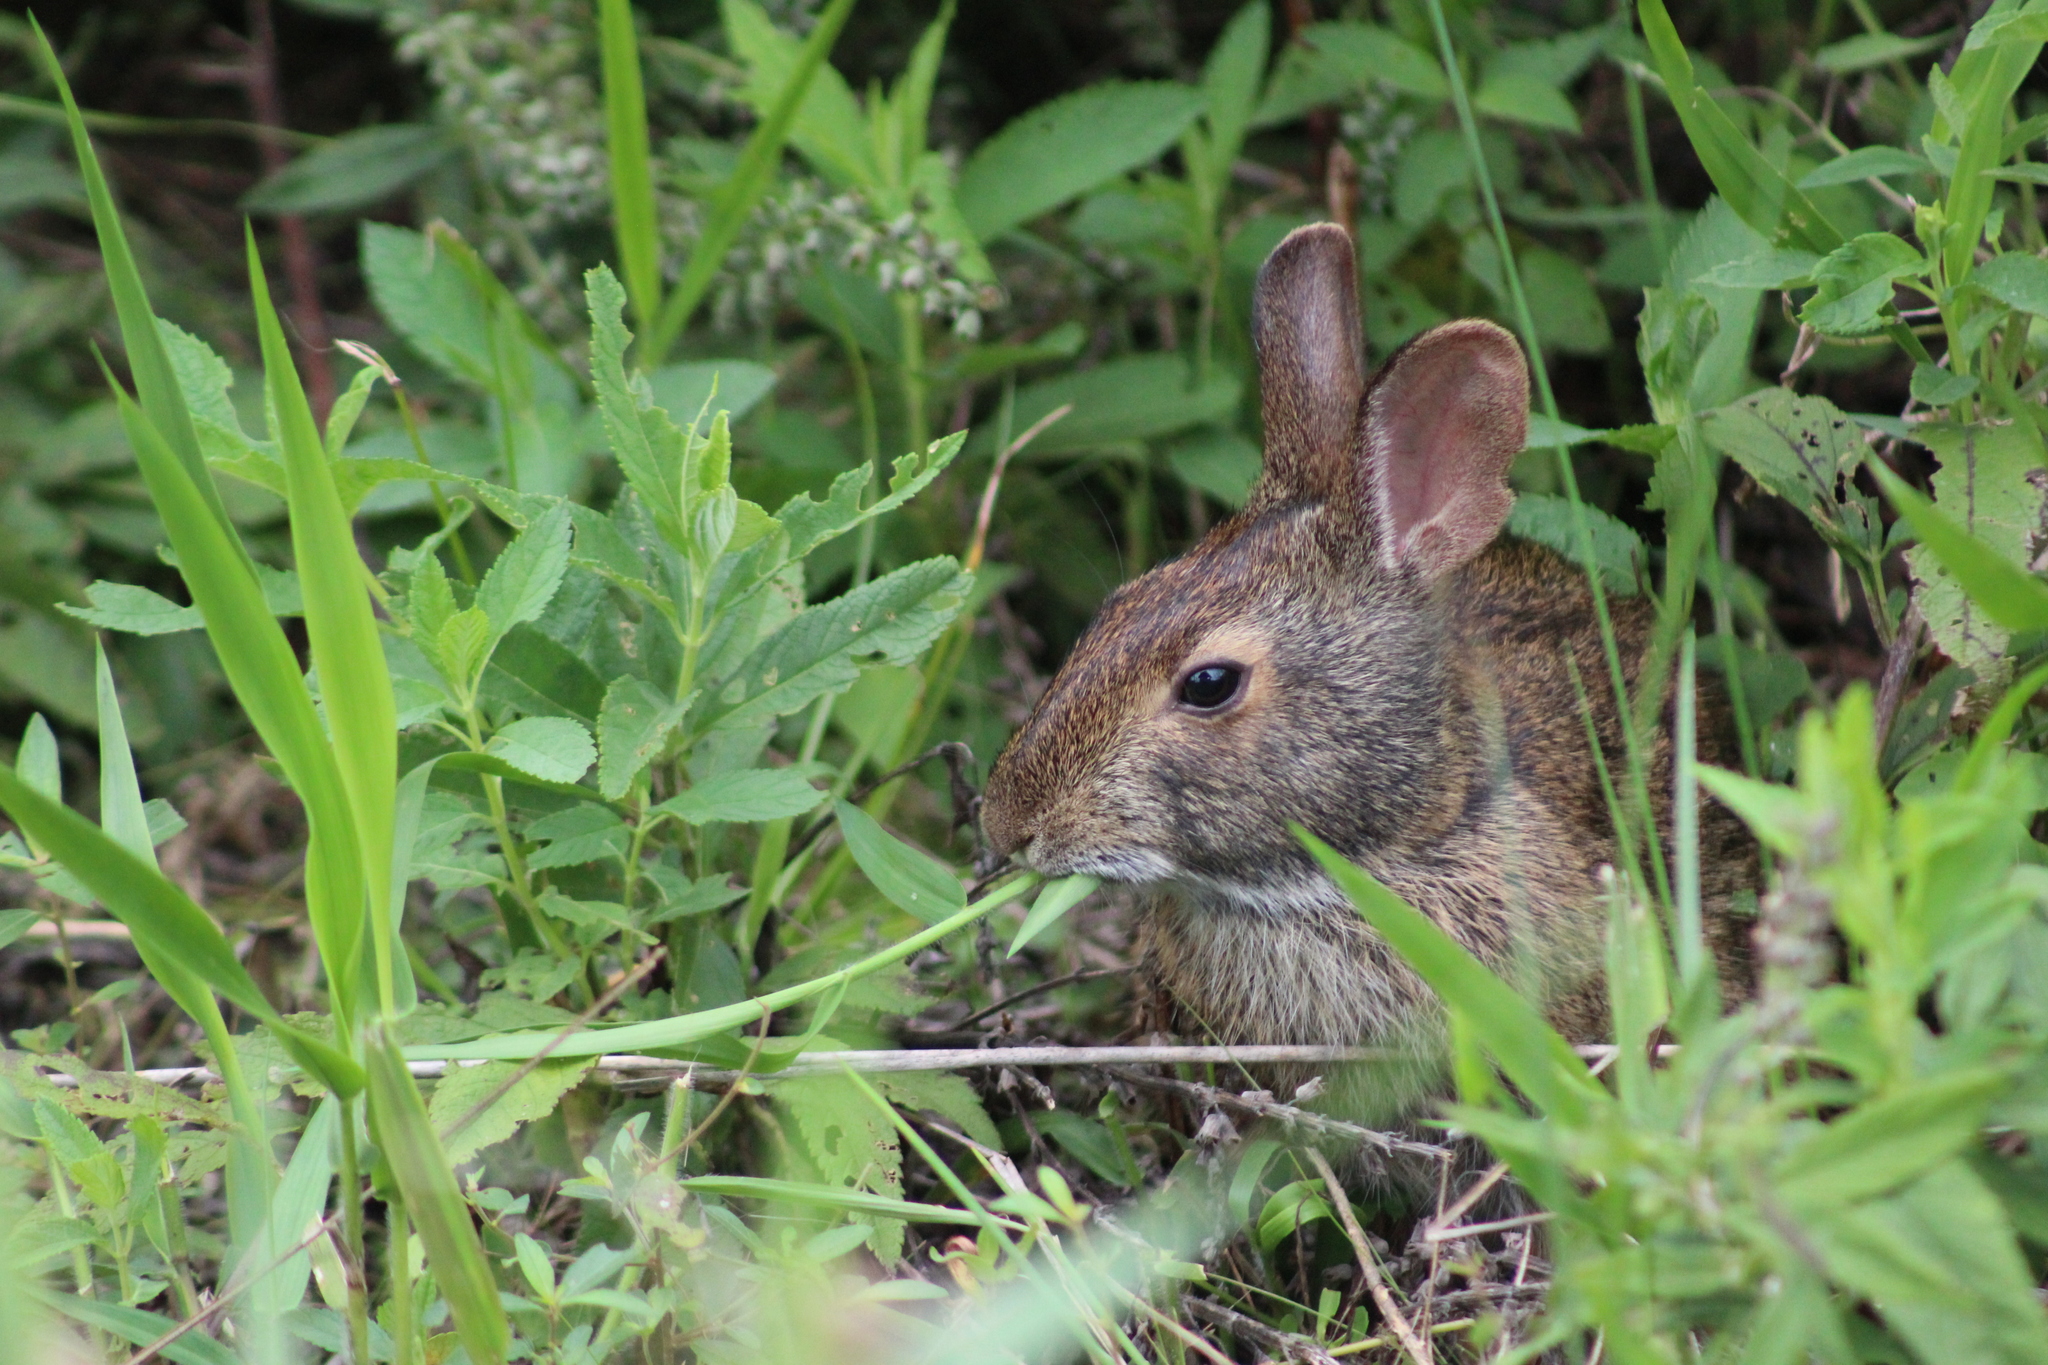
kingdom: Animalia
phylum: Chordata
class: Mammalia
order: Lagomorpha
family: Leporidae
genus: Sylvilagus
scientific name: Sylvilagus palustris
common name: Marsh rabbit
